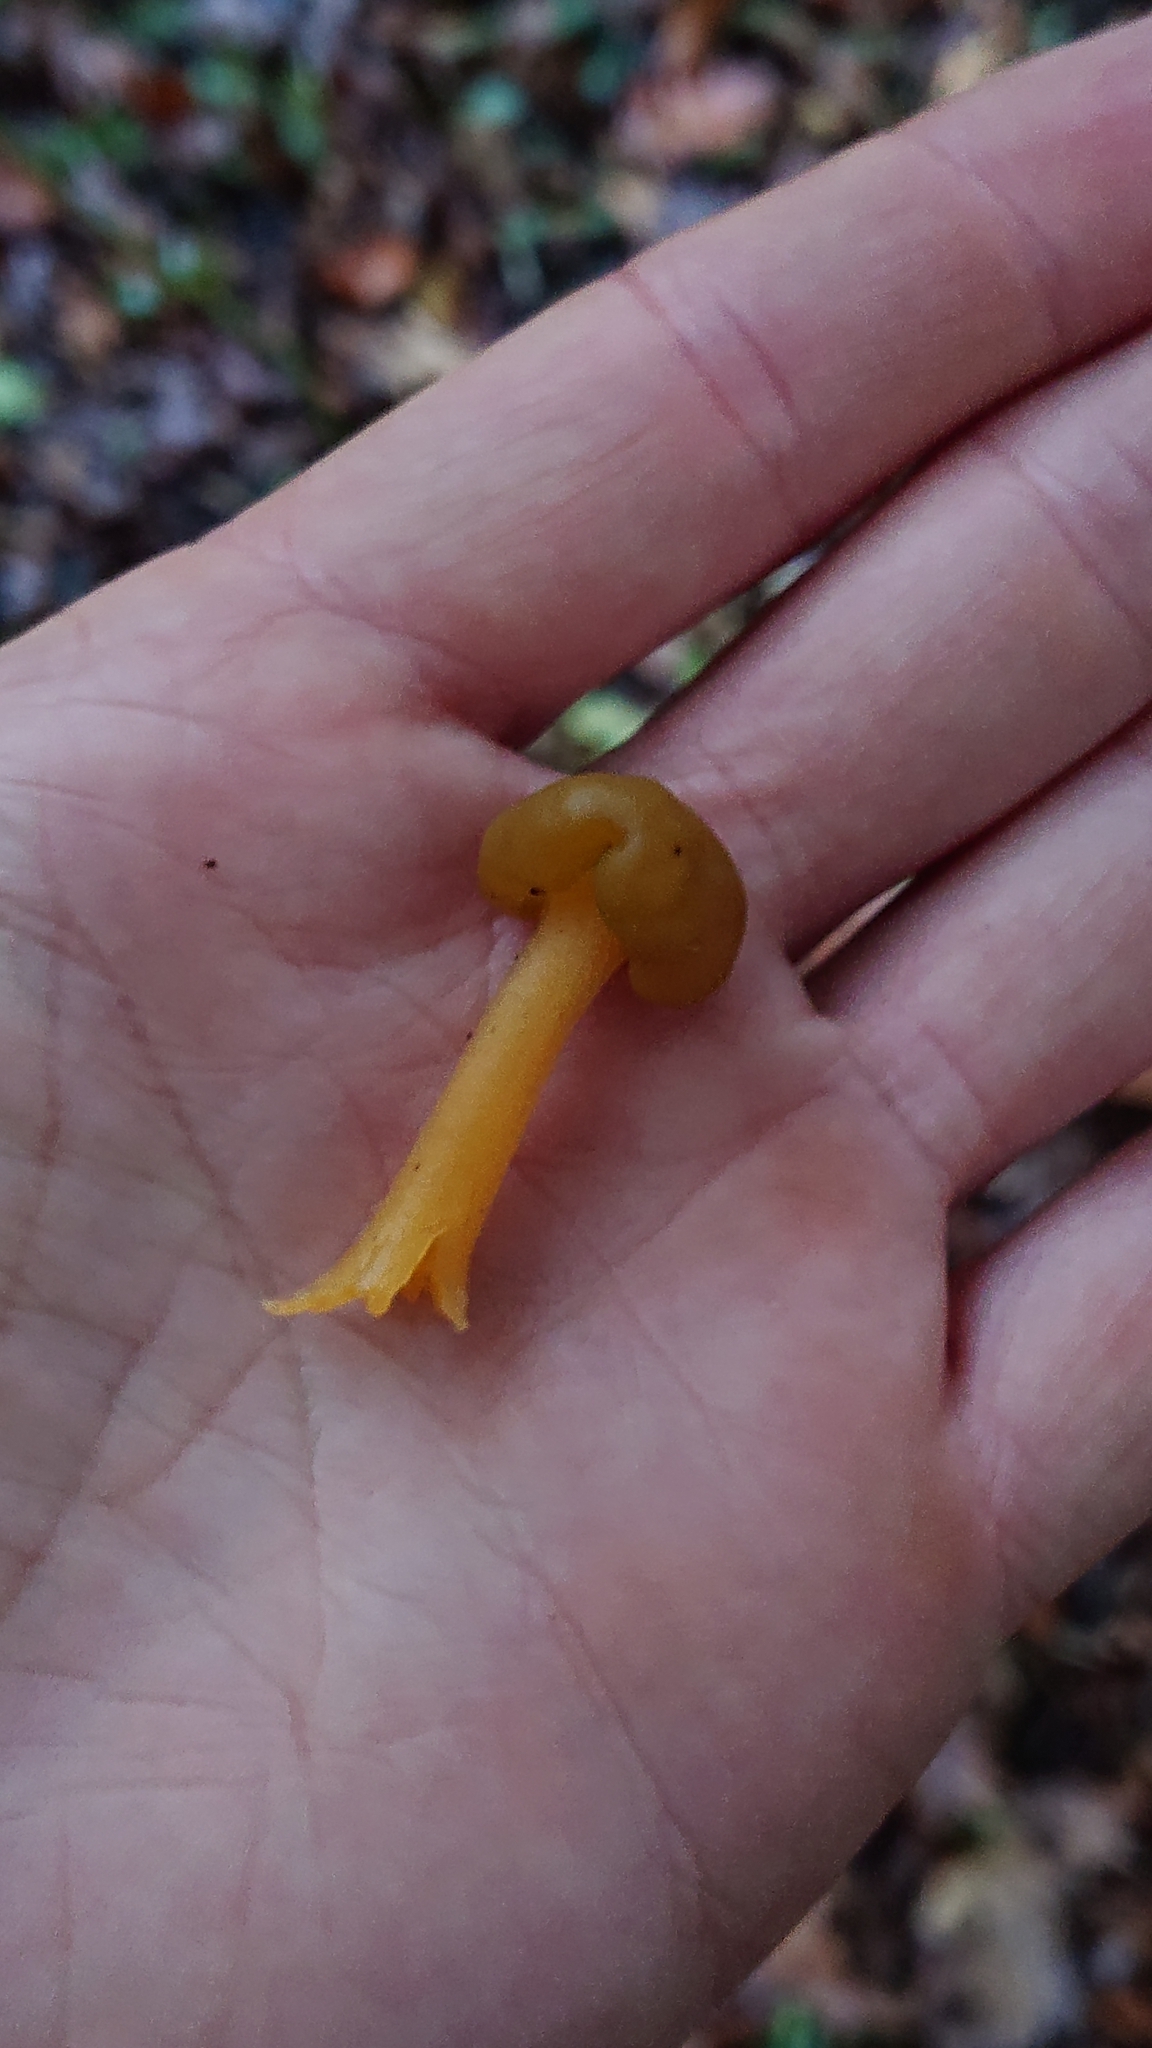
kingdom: Fungi
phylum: Ascomycota
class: Leotiomycetes
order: Leotiales
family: Leotiaceae
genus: Leotia
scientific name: Leotia lubrica
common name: Jellybaby
